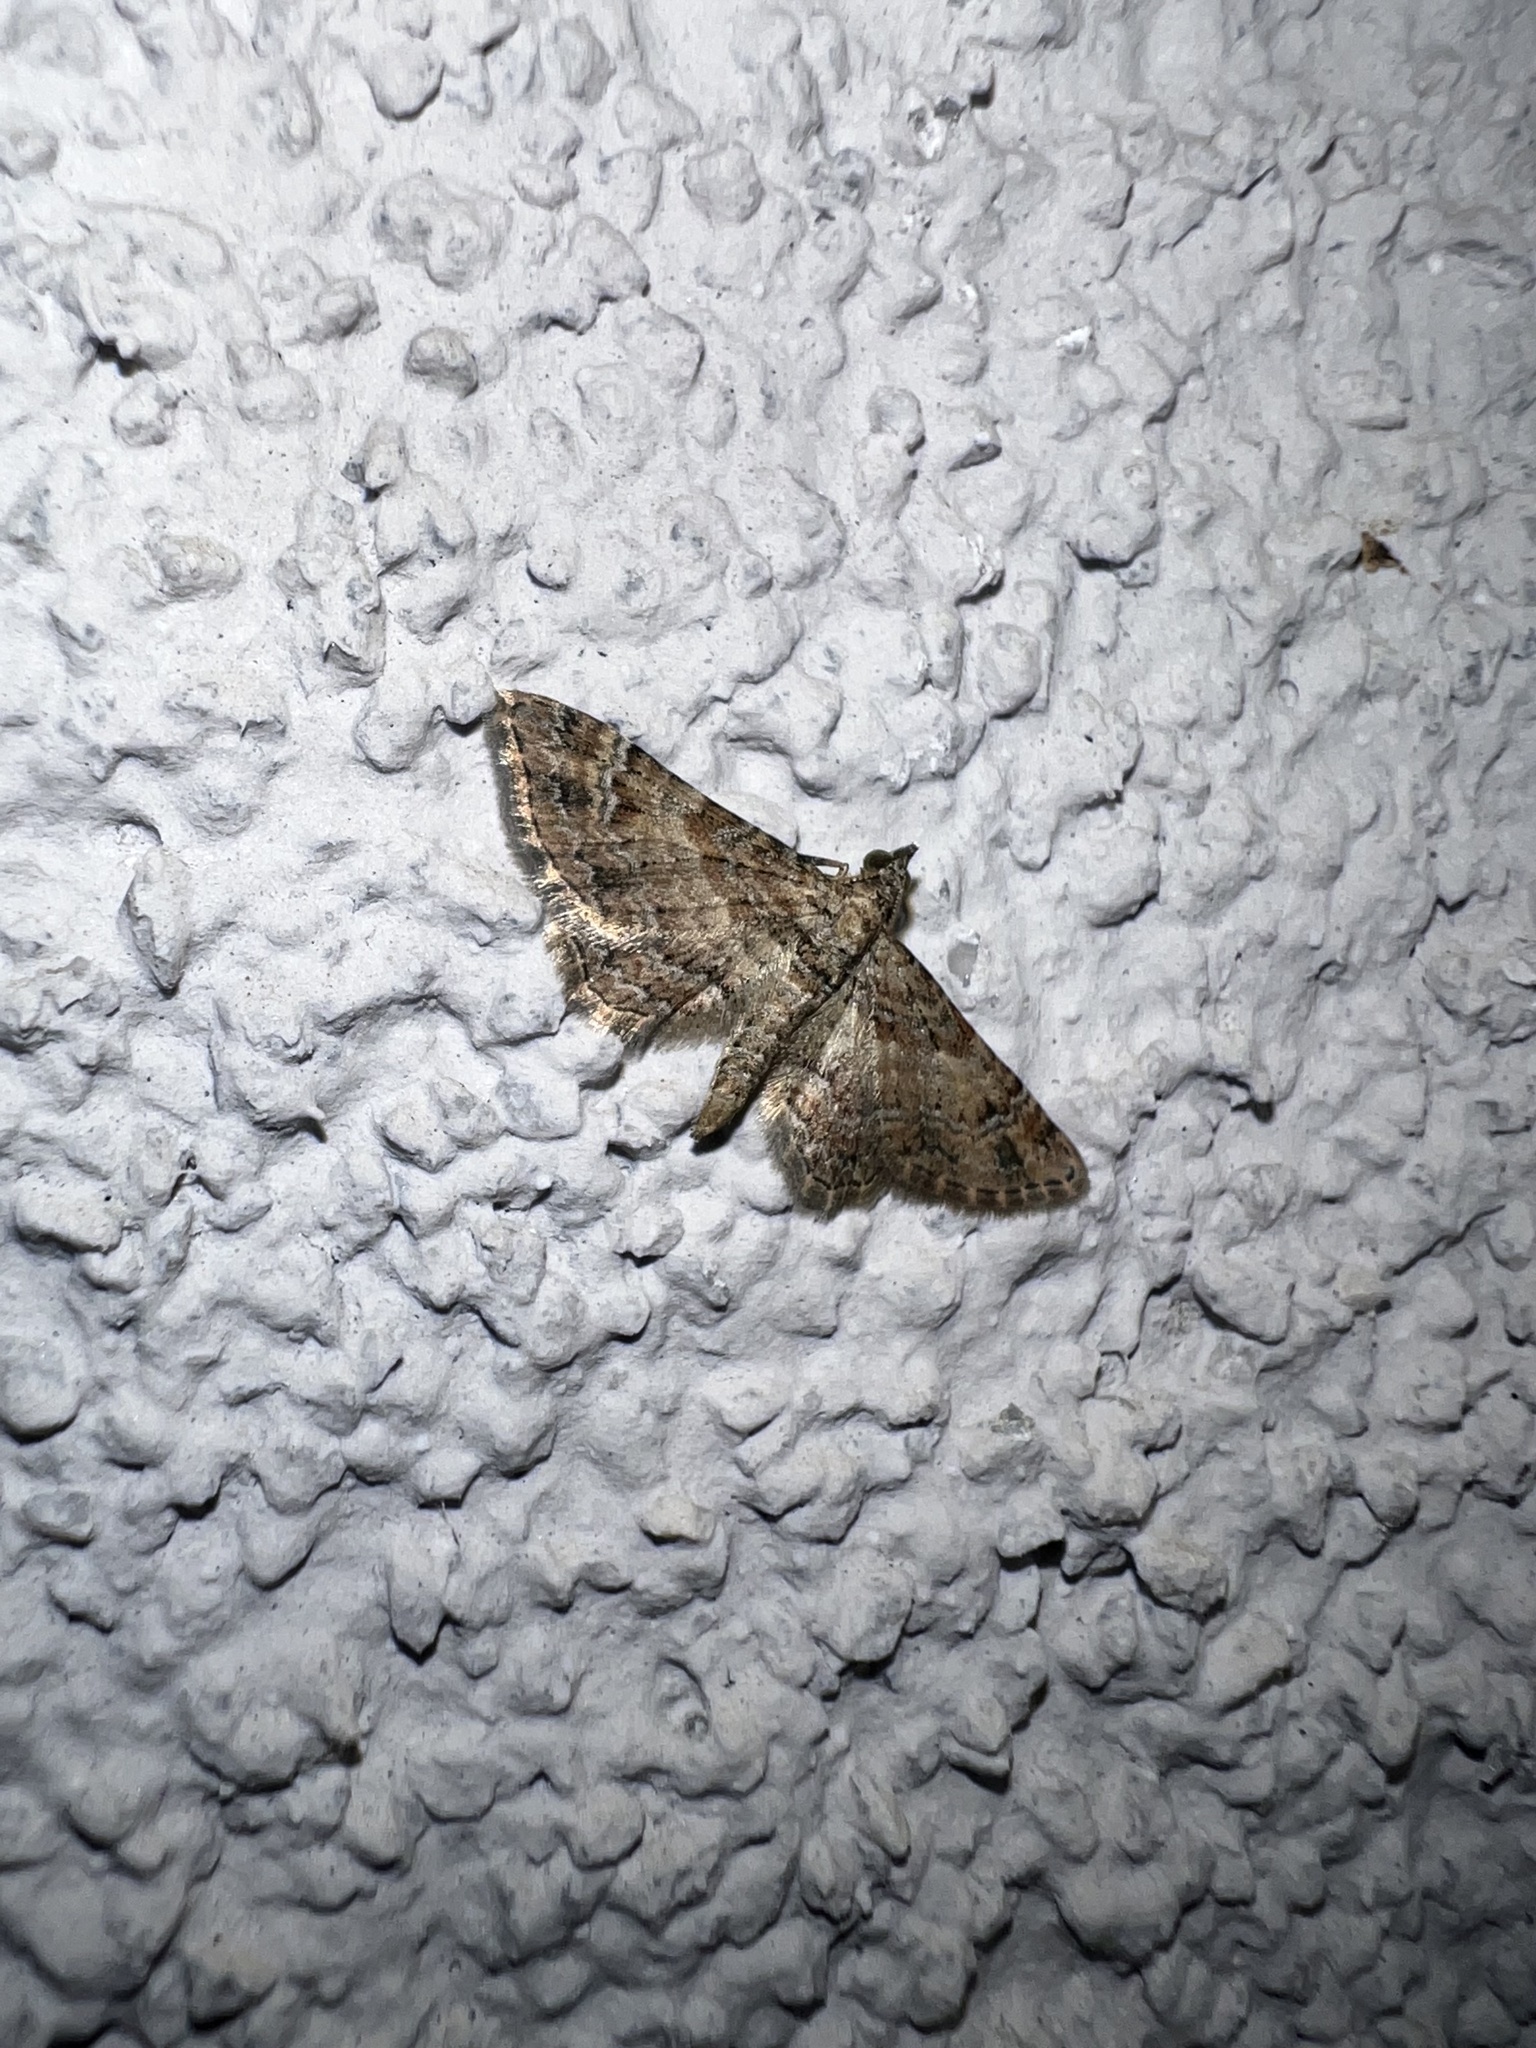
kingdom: Animalia
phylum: Arthropoda
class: Insecta
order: Lepidoptera
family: Geometridae
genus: Gymnoscelis
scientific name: Gymnoscelis rufifasciata
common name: Double-striped pug
